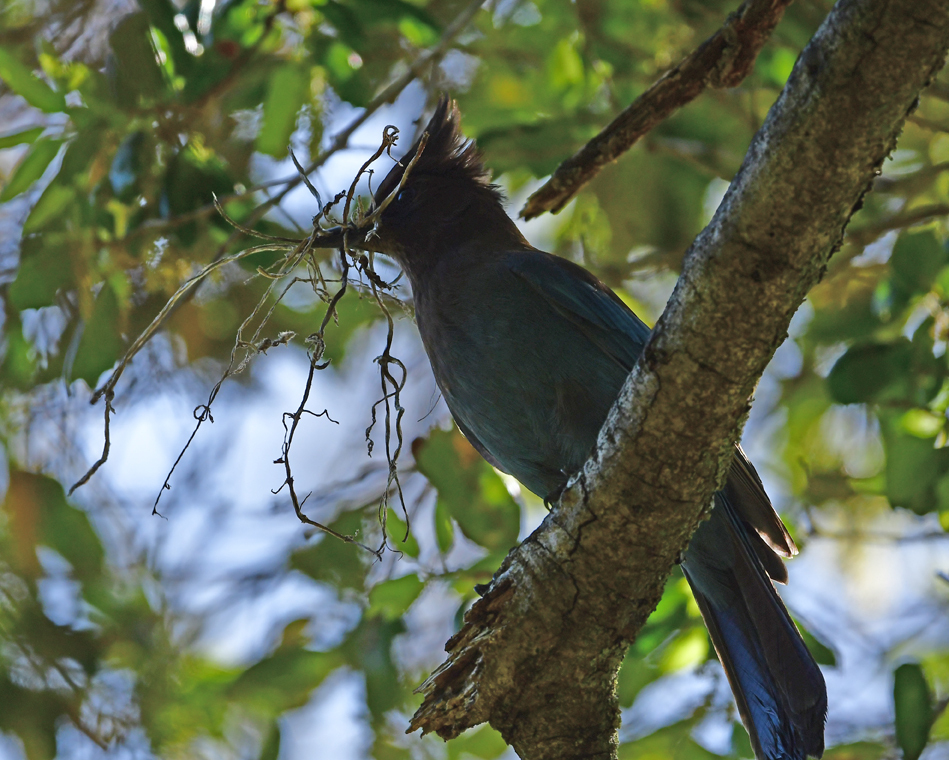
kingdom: Animalia
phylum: Chordata
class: Aves
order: Passeriformes
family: Corvidae
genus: Cyanocitta
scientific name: Cyanocitta stelleri
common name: Steller's jay
